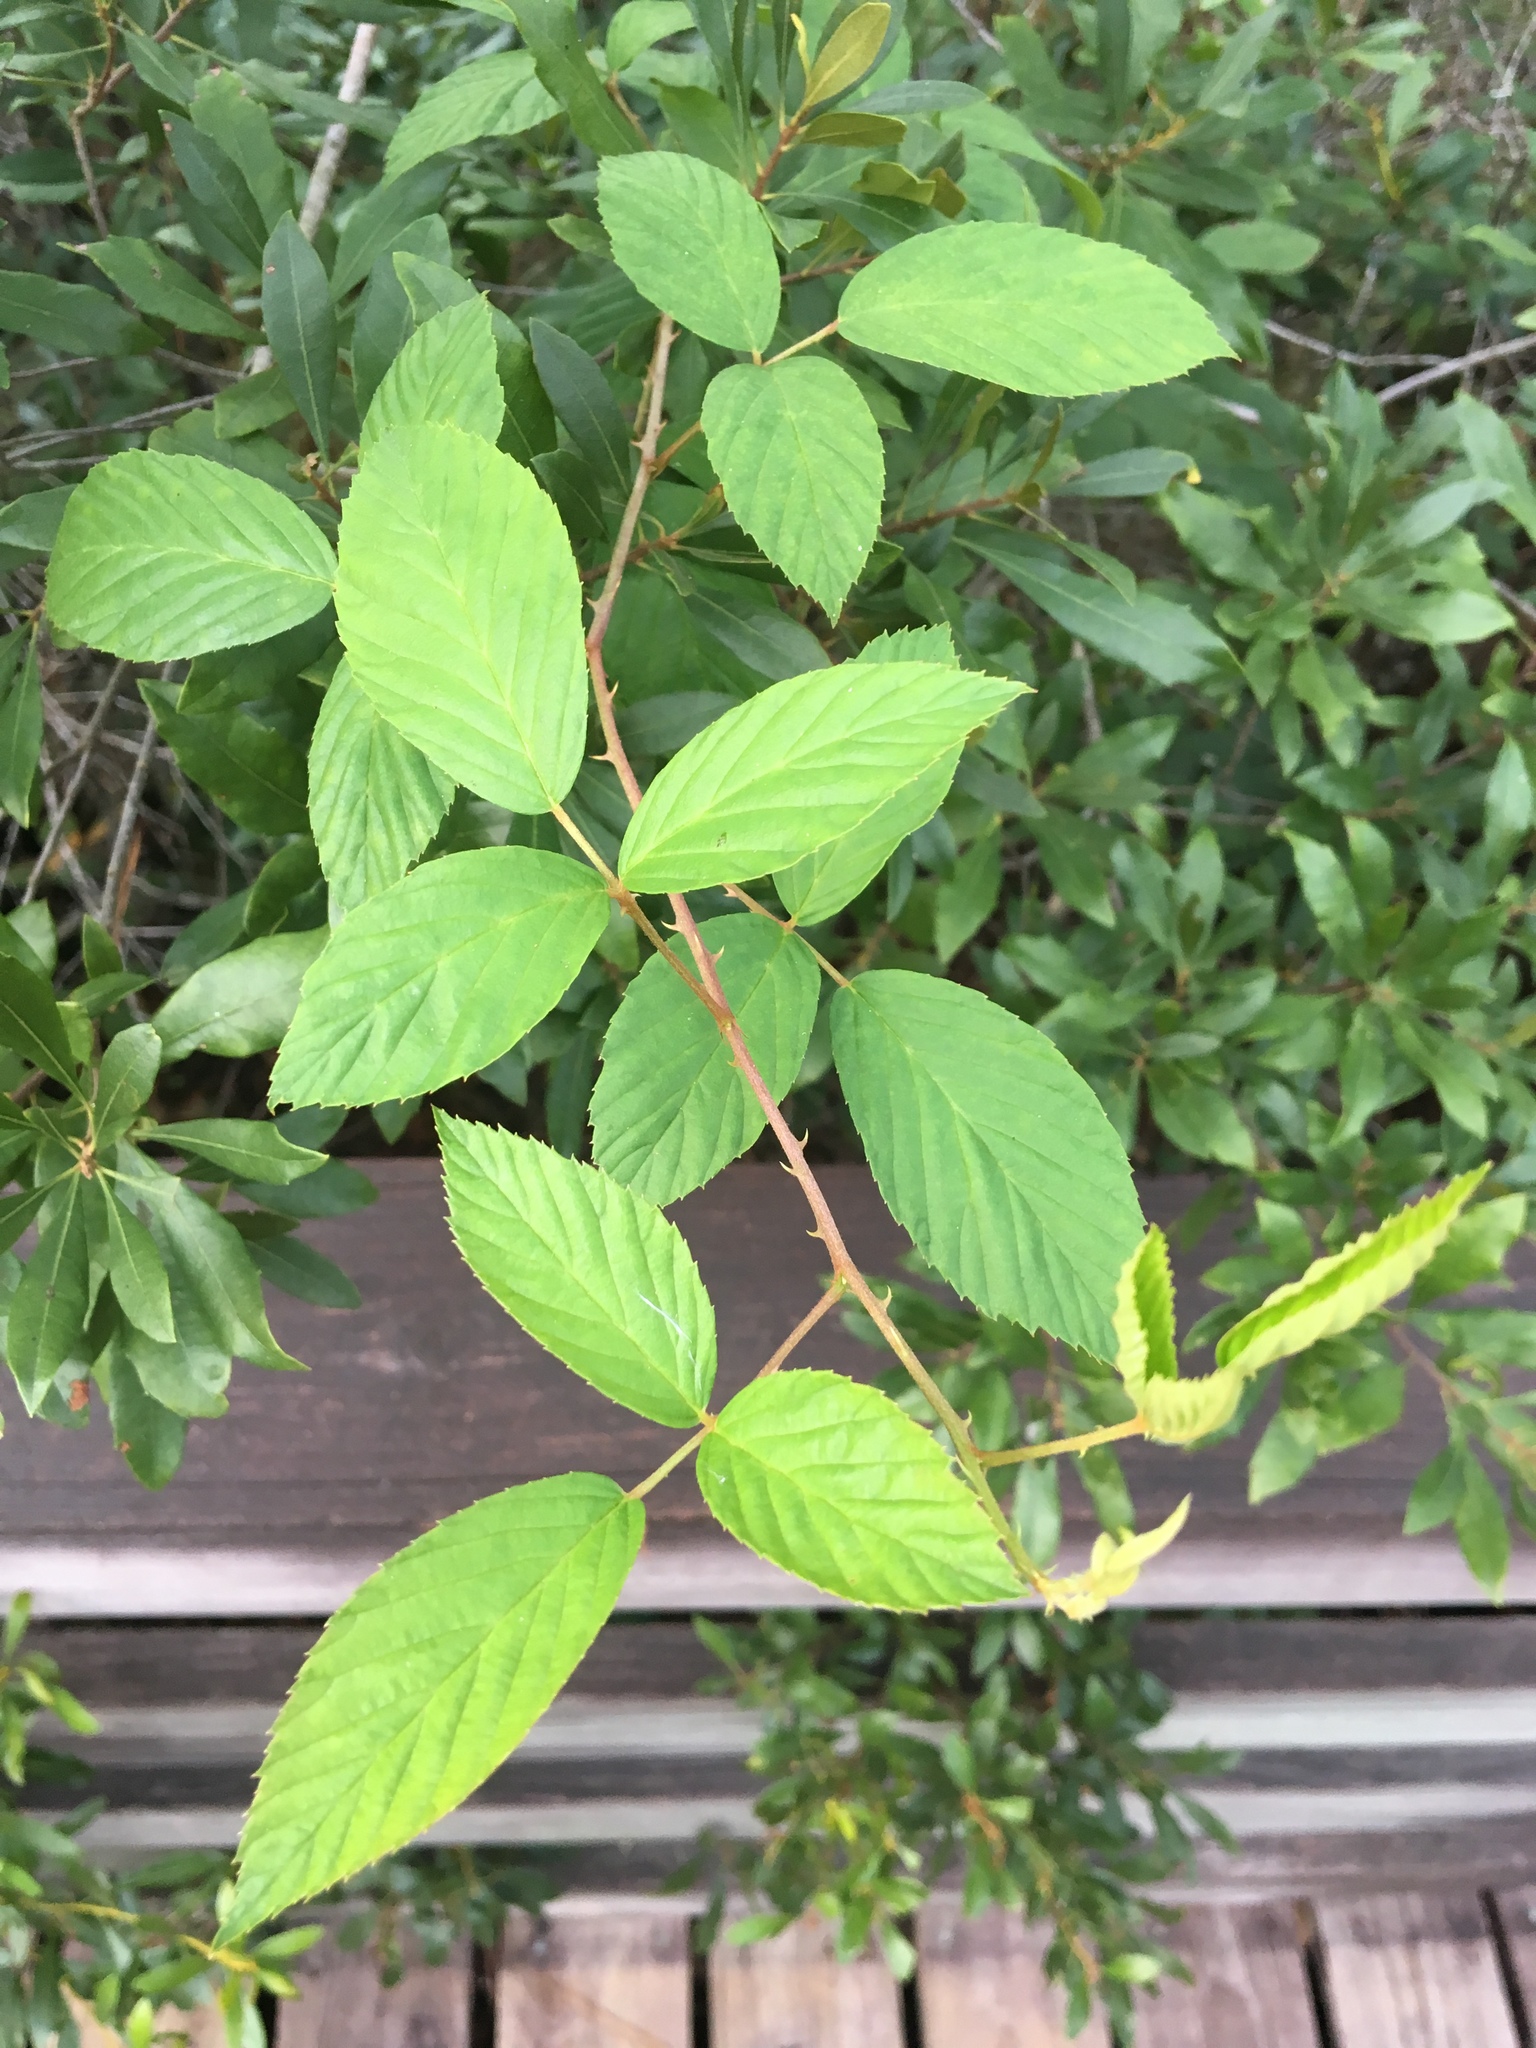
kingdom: Plantae
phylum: Tracheophyta
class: Magnoliopsida
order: Rosales
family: Rosaceae
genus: Rubus
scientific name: Rubus pensilvanicus
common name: Pennsylvania blackberry
